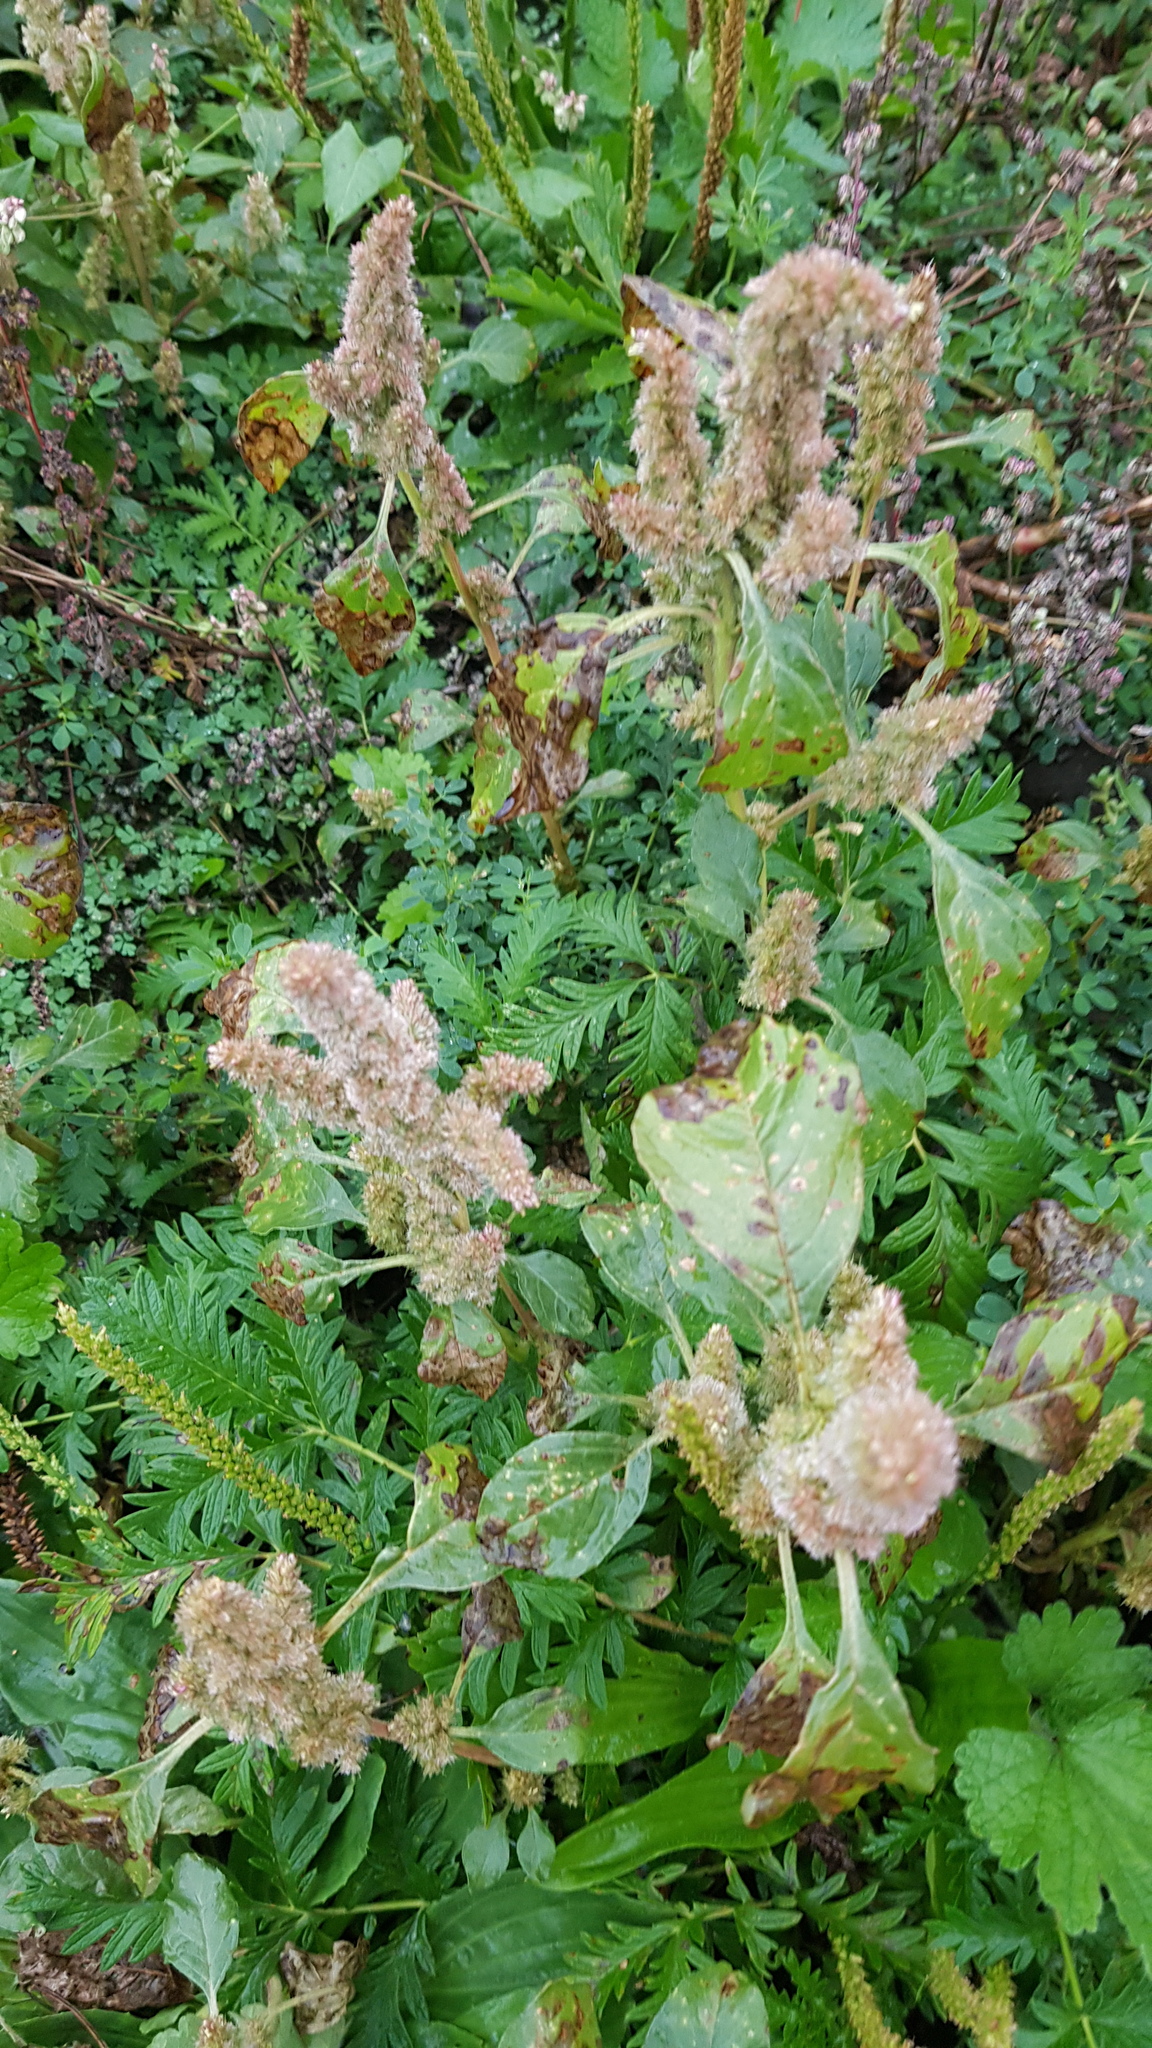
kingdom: Plantae
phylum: Tracheophyta
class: Magnoliopsida
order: Caryophyllales
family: Amaranthaceae
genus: Amaranthus
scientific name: Amaranthus retroflexus
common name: Redroot amaranth
